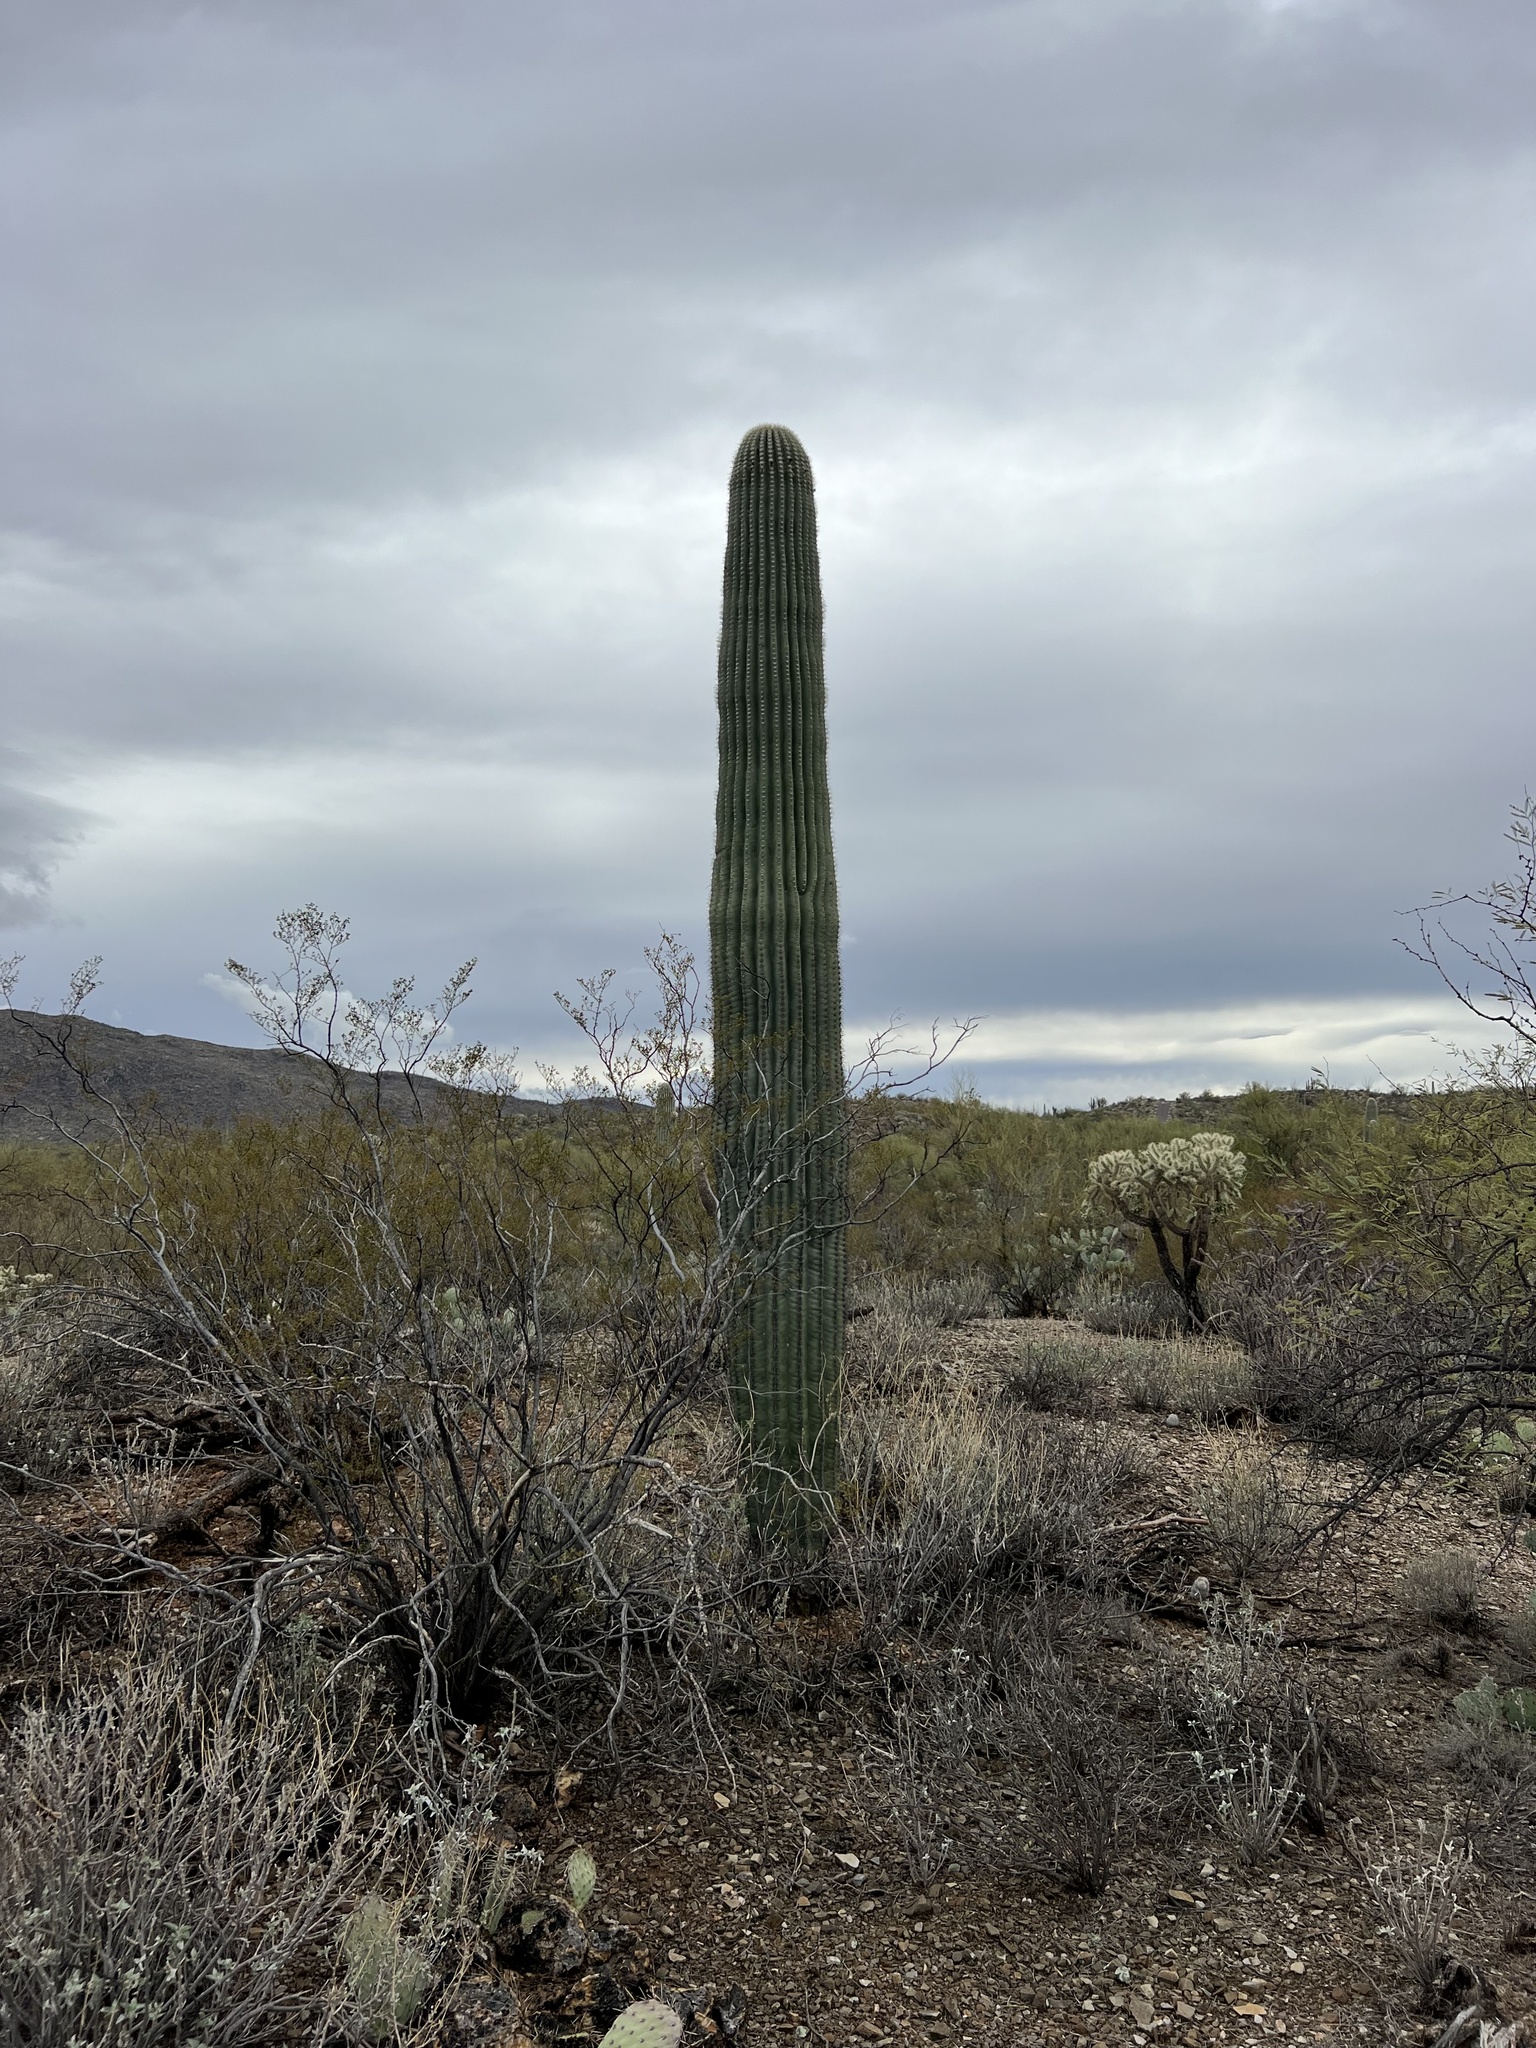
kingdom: Plantae
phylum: Tracheophyta
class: Magnoliopsida
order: Caryophyllales
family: Cactaceae
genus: Carnegiea
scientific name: Carnegiea gigantea
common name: Saguaro
